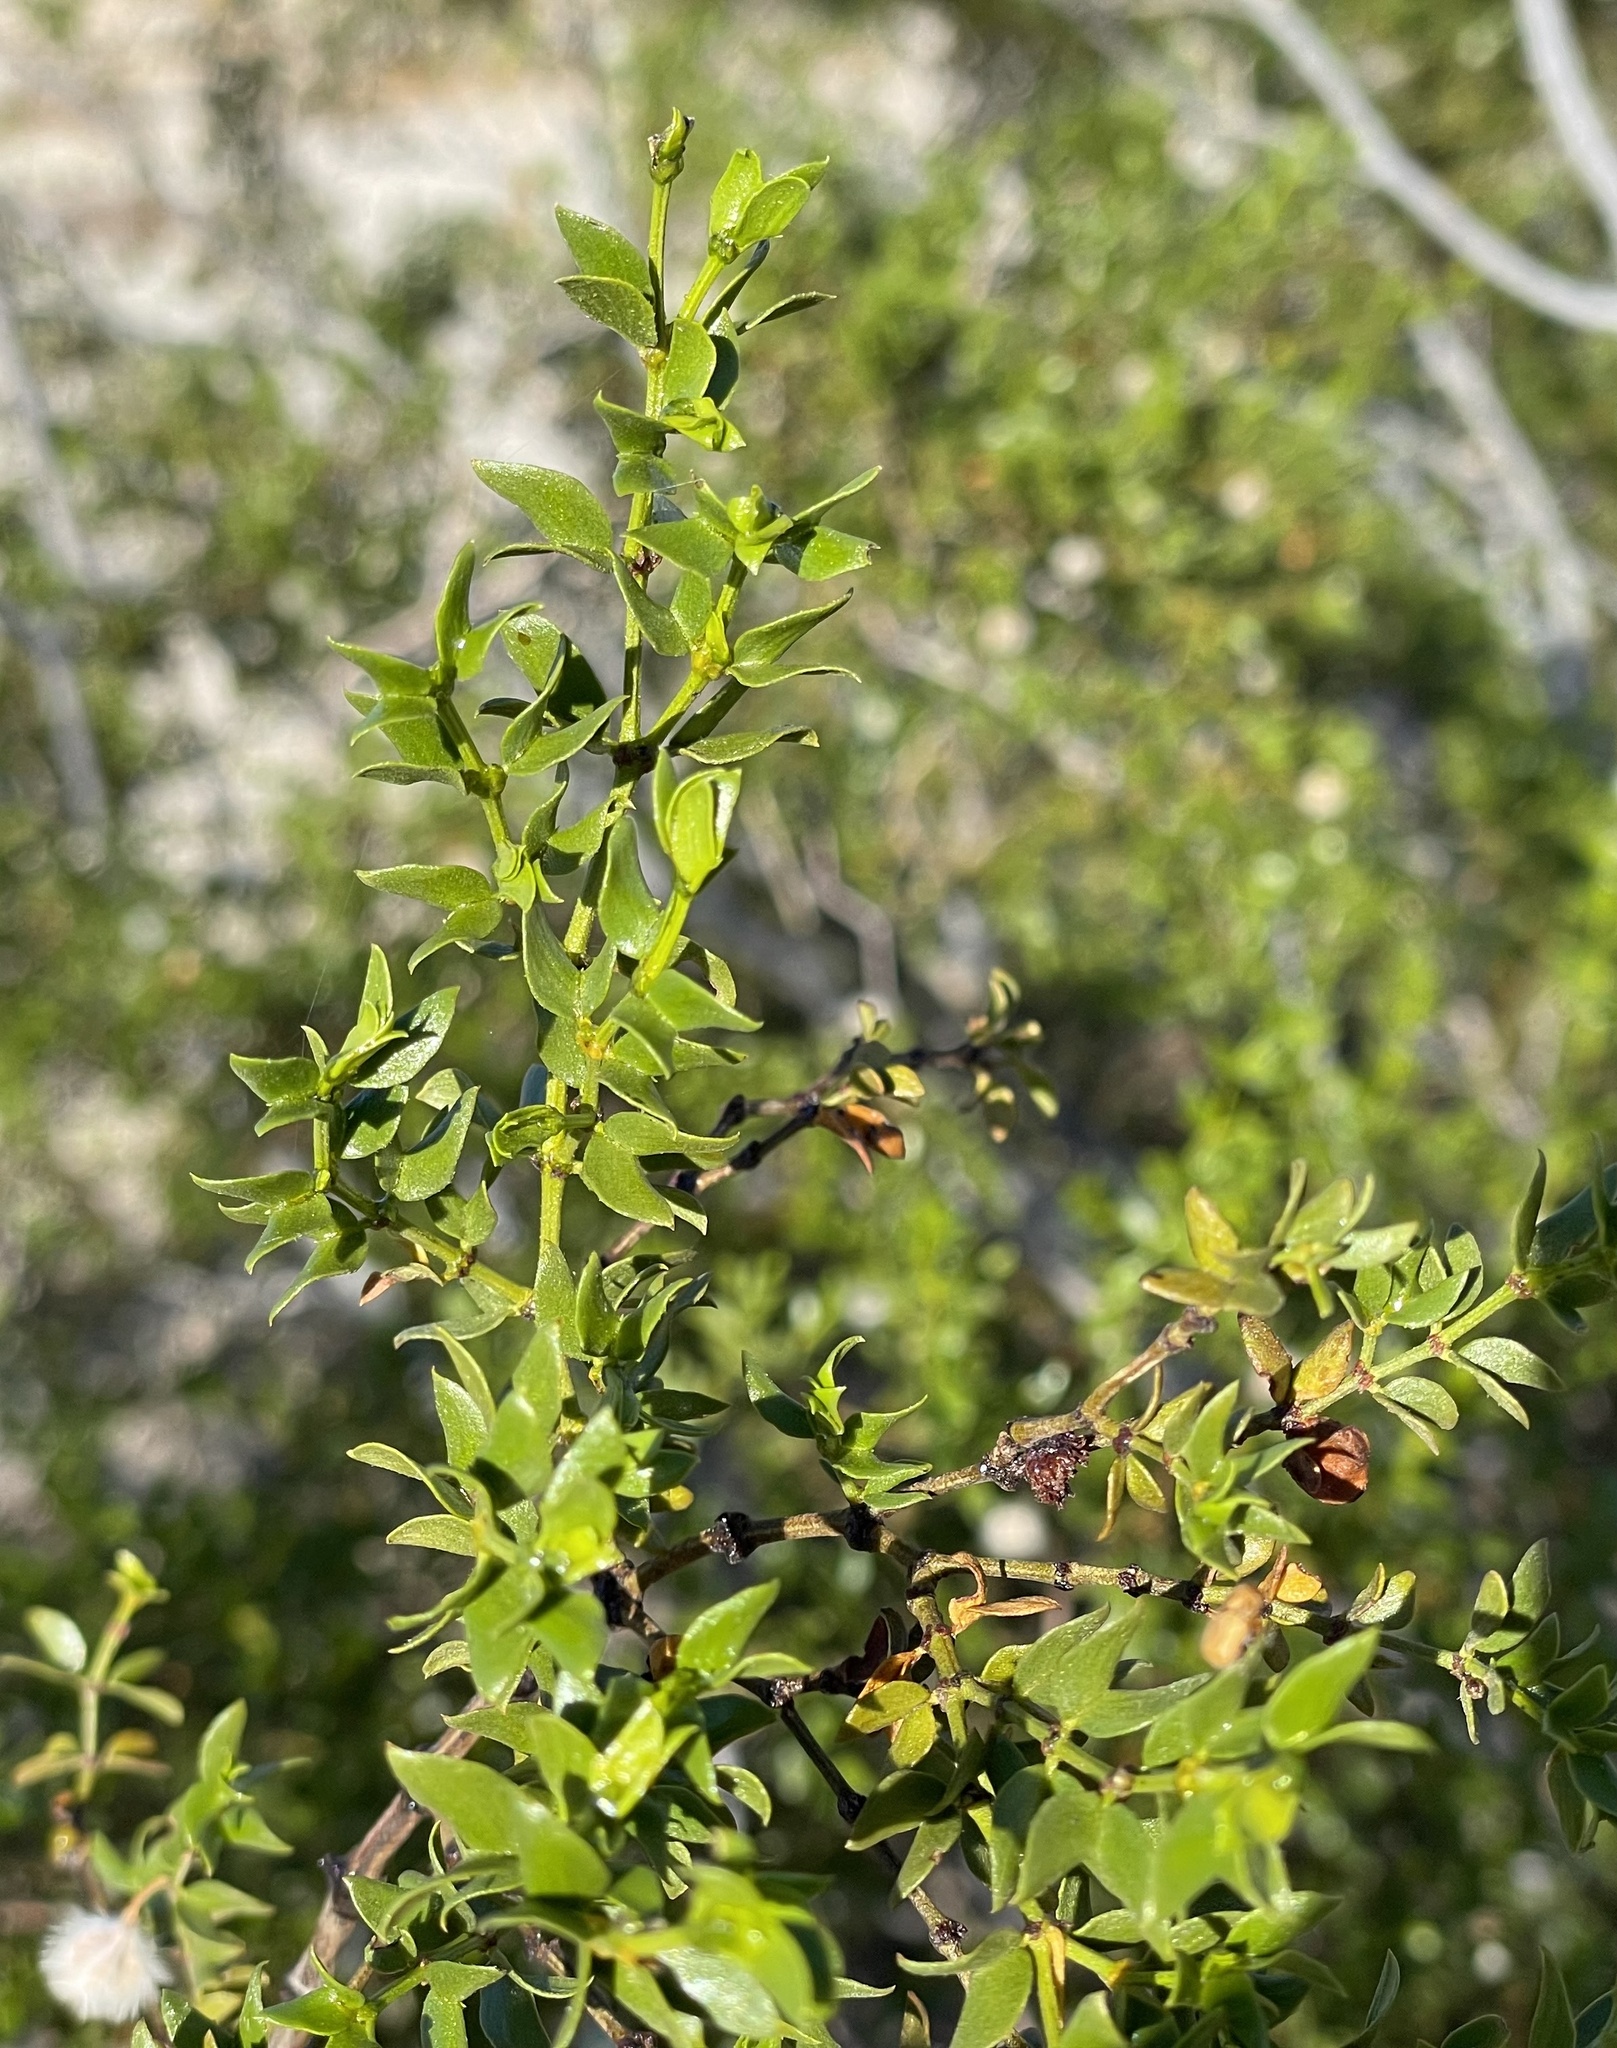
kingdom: Plantae
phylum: Tracheophyta
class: Magnoliopsida
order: Zygophyllales
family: Zygophyllaceae
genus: Larrea
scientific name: Larrea tridentata
